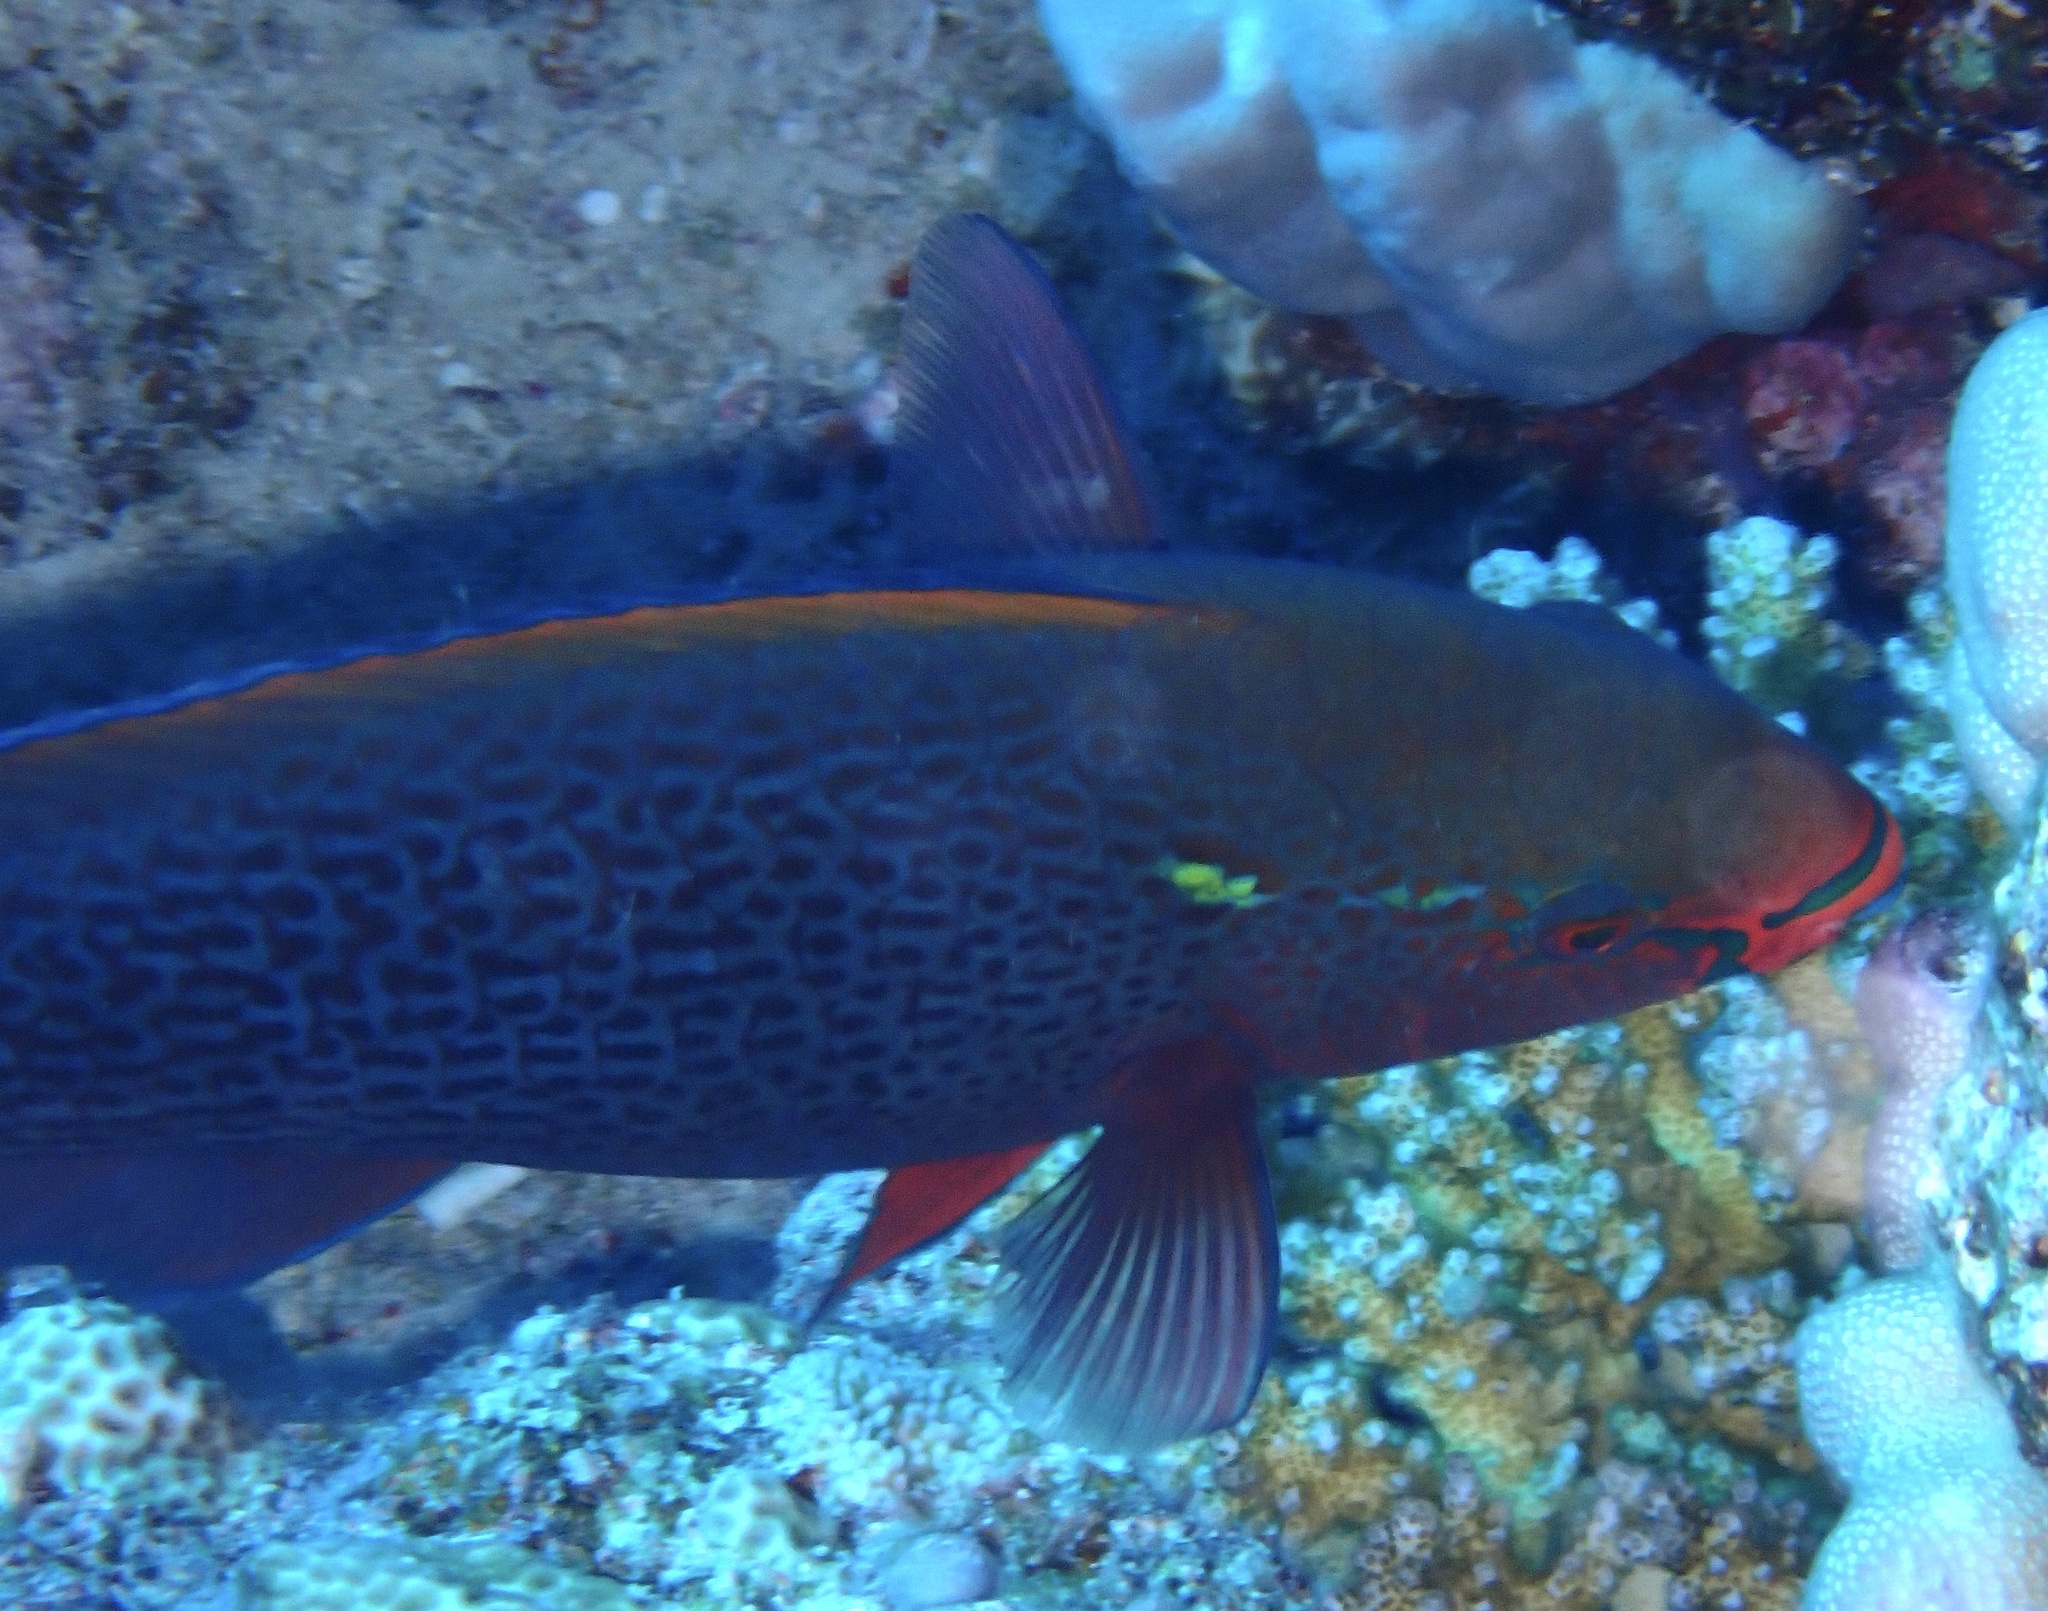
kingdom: Animalia
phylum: Chordata
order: Perciformes
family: Scaridae
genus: Scarus
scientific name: Scarus niger
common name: Dusky parrotfish
